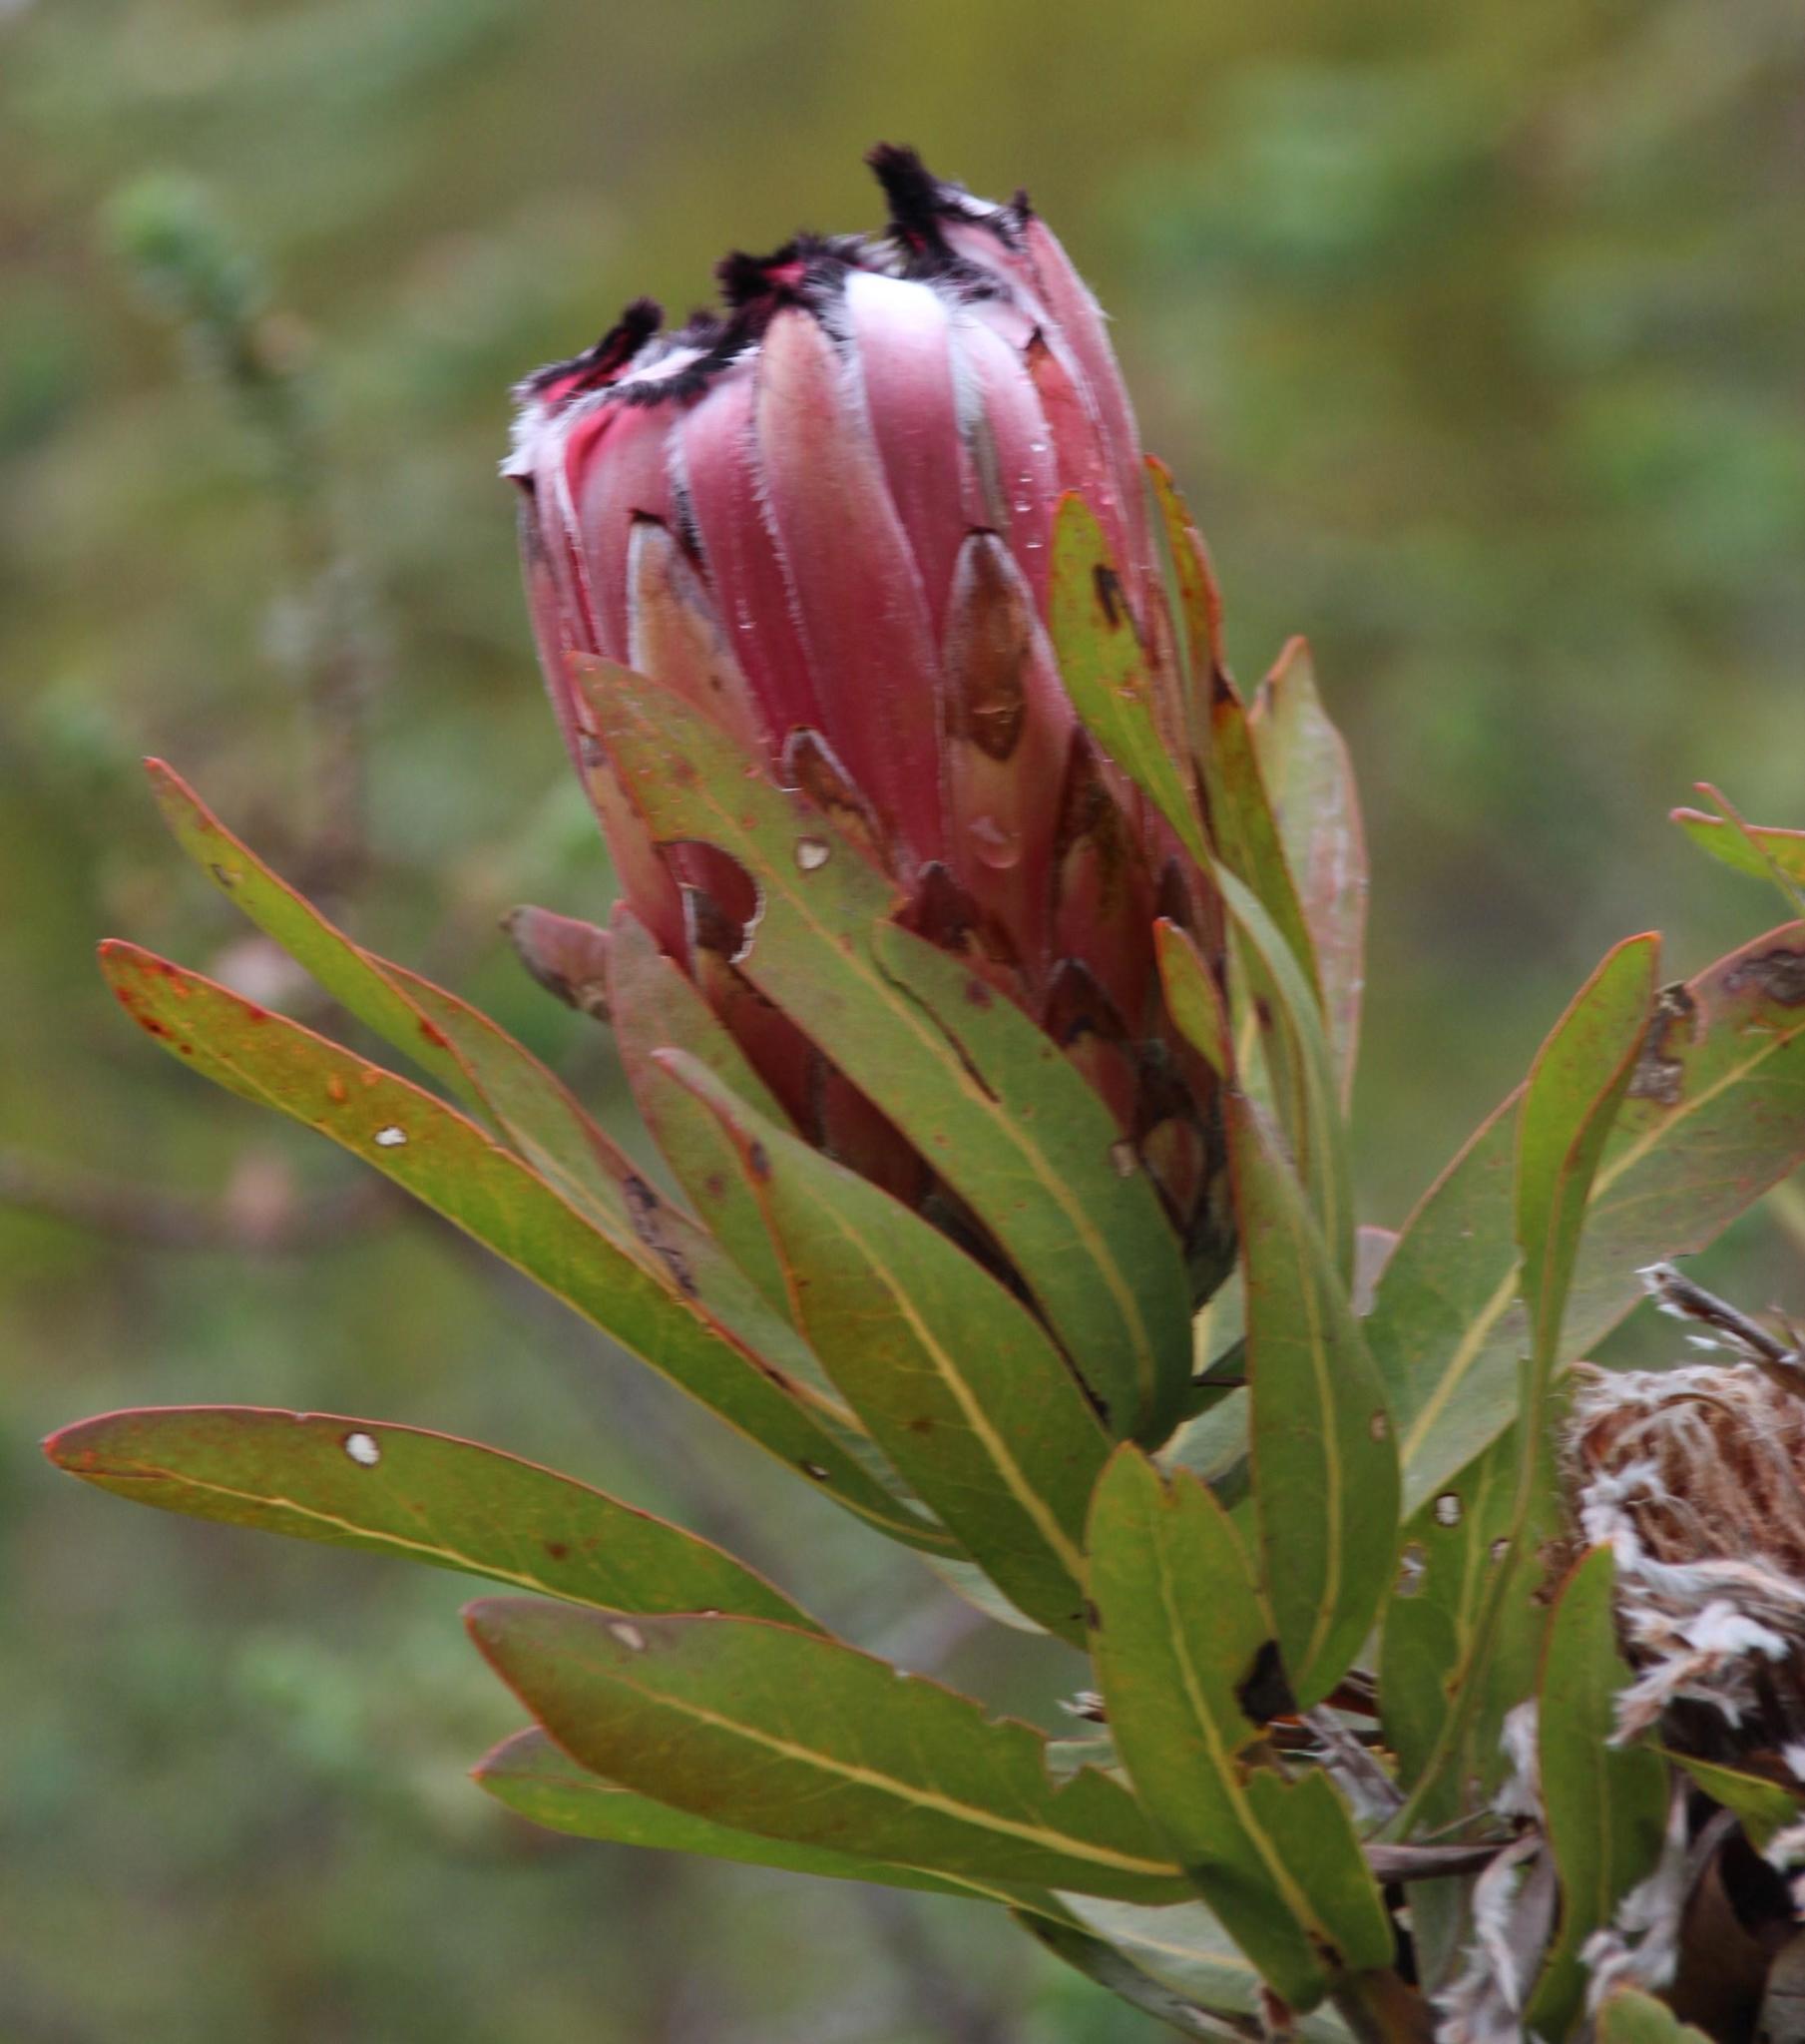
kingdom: Plantae
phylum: Tracheophyta
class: Magnoliopsida
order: Proteales
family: Proteaceae
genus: Protea
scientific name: Protea neriifolia
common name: Blue sugarbush
